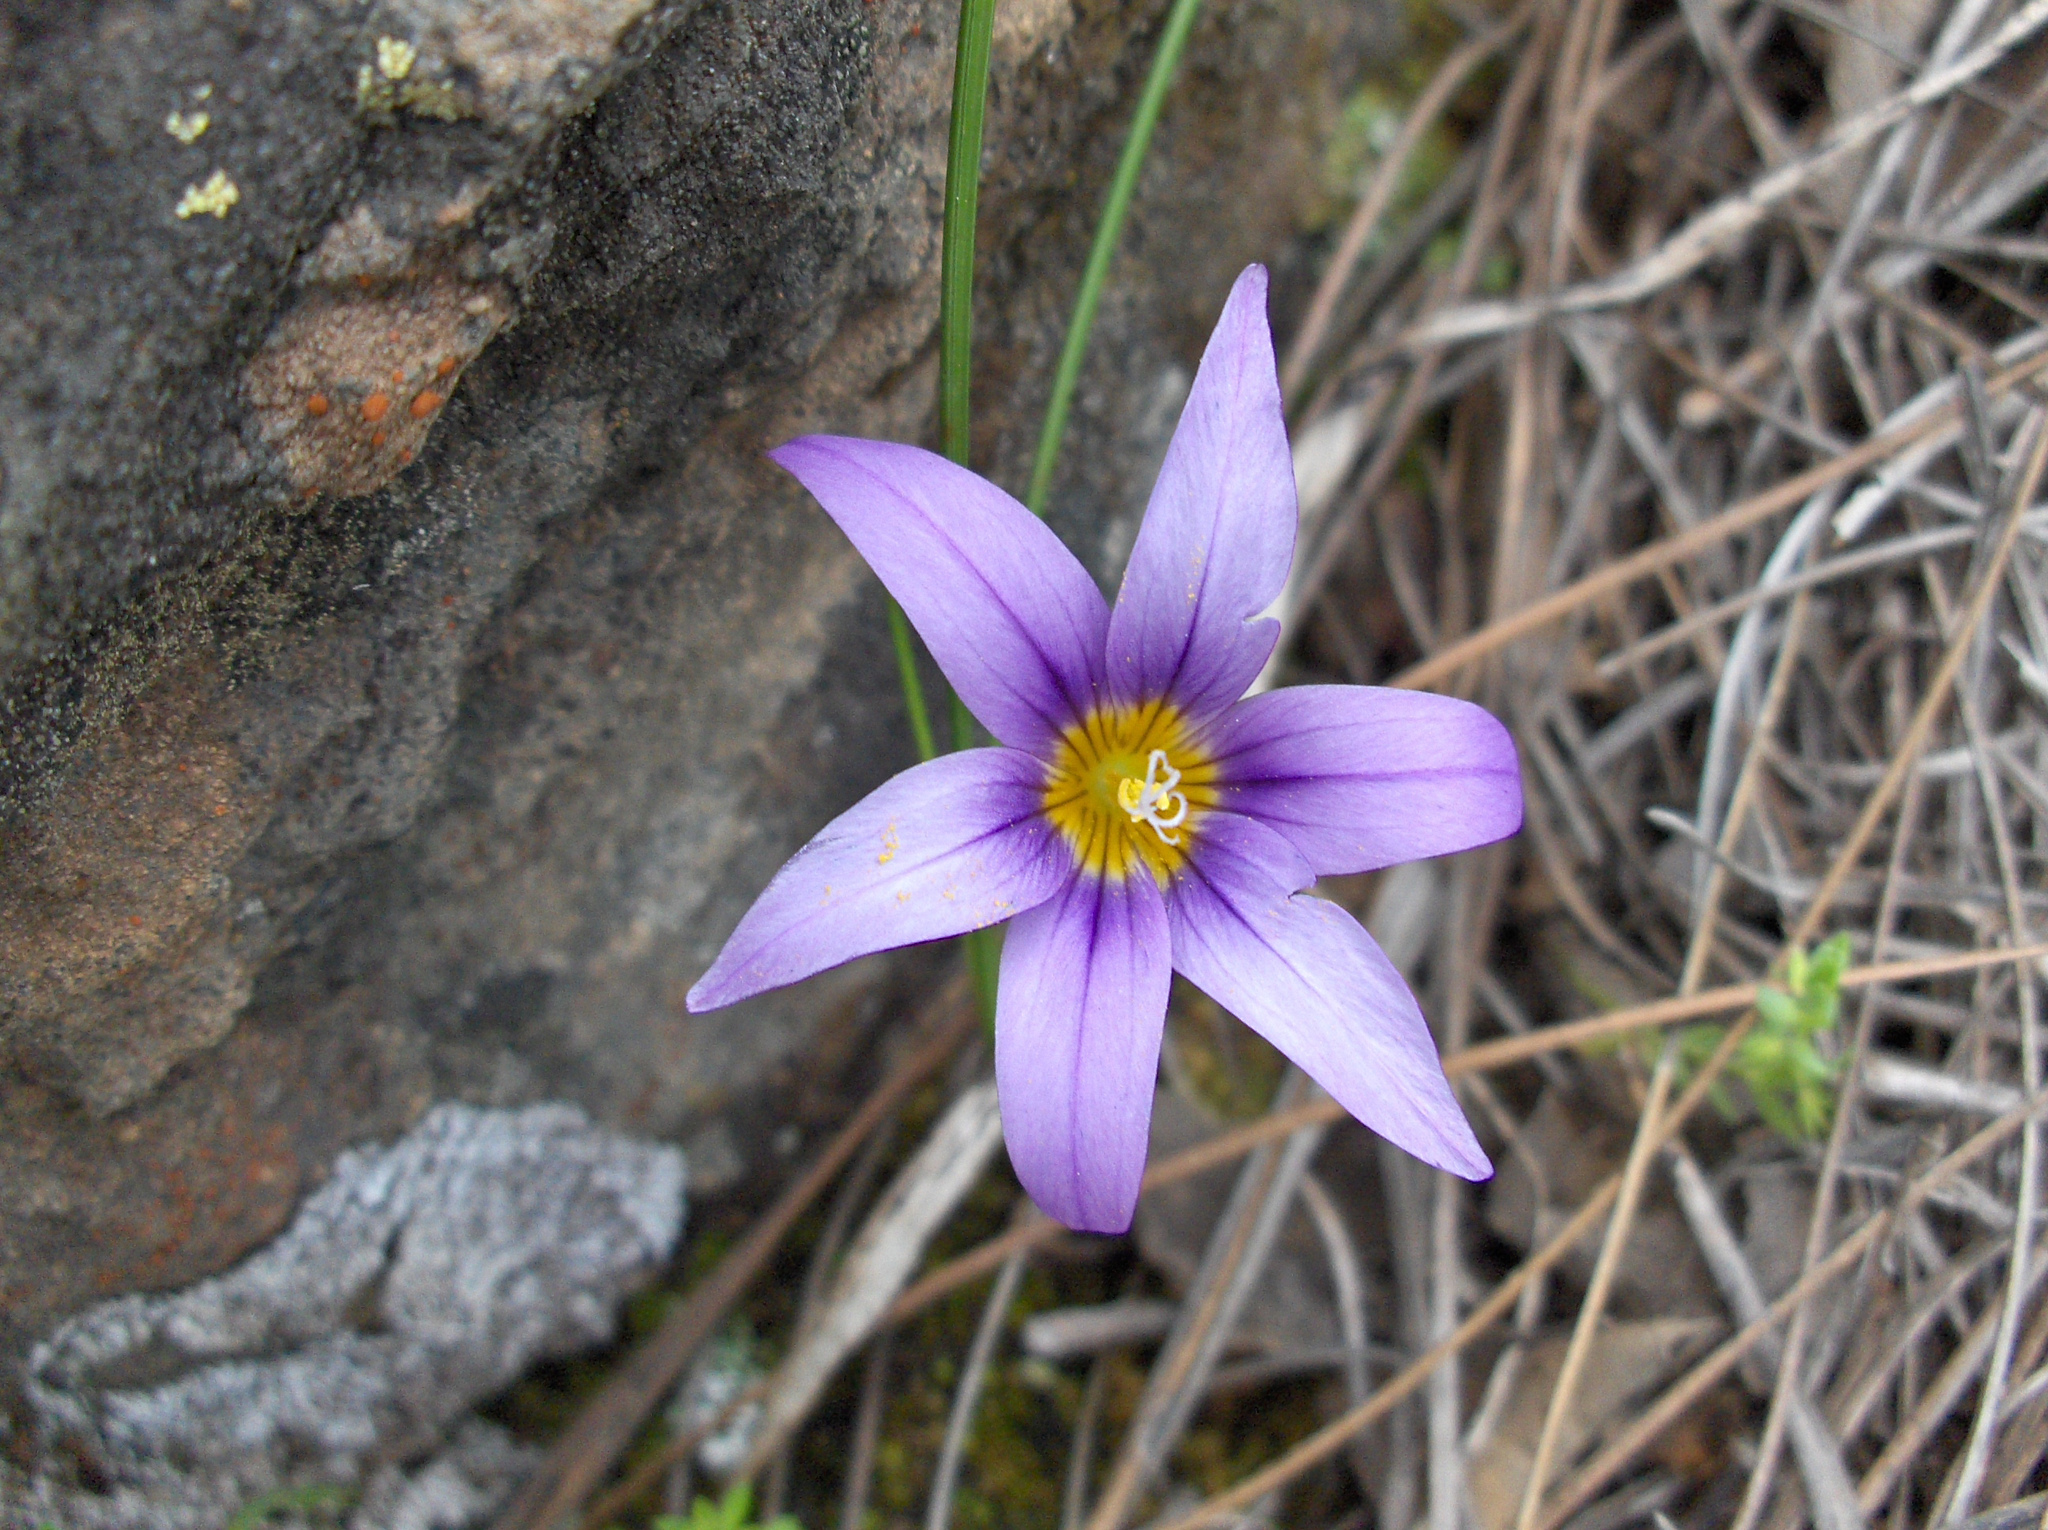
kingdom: Plantae
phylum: Tracheophyta
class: Liliopsida
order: Asparagales
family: Iridaceae
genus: Romulea
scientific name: Romulea columnae
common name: Sand-crocus
